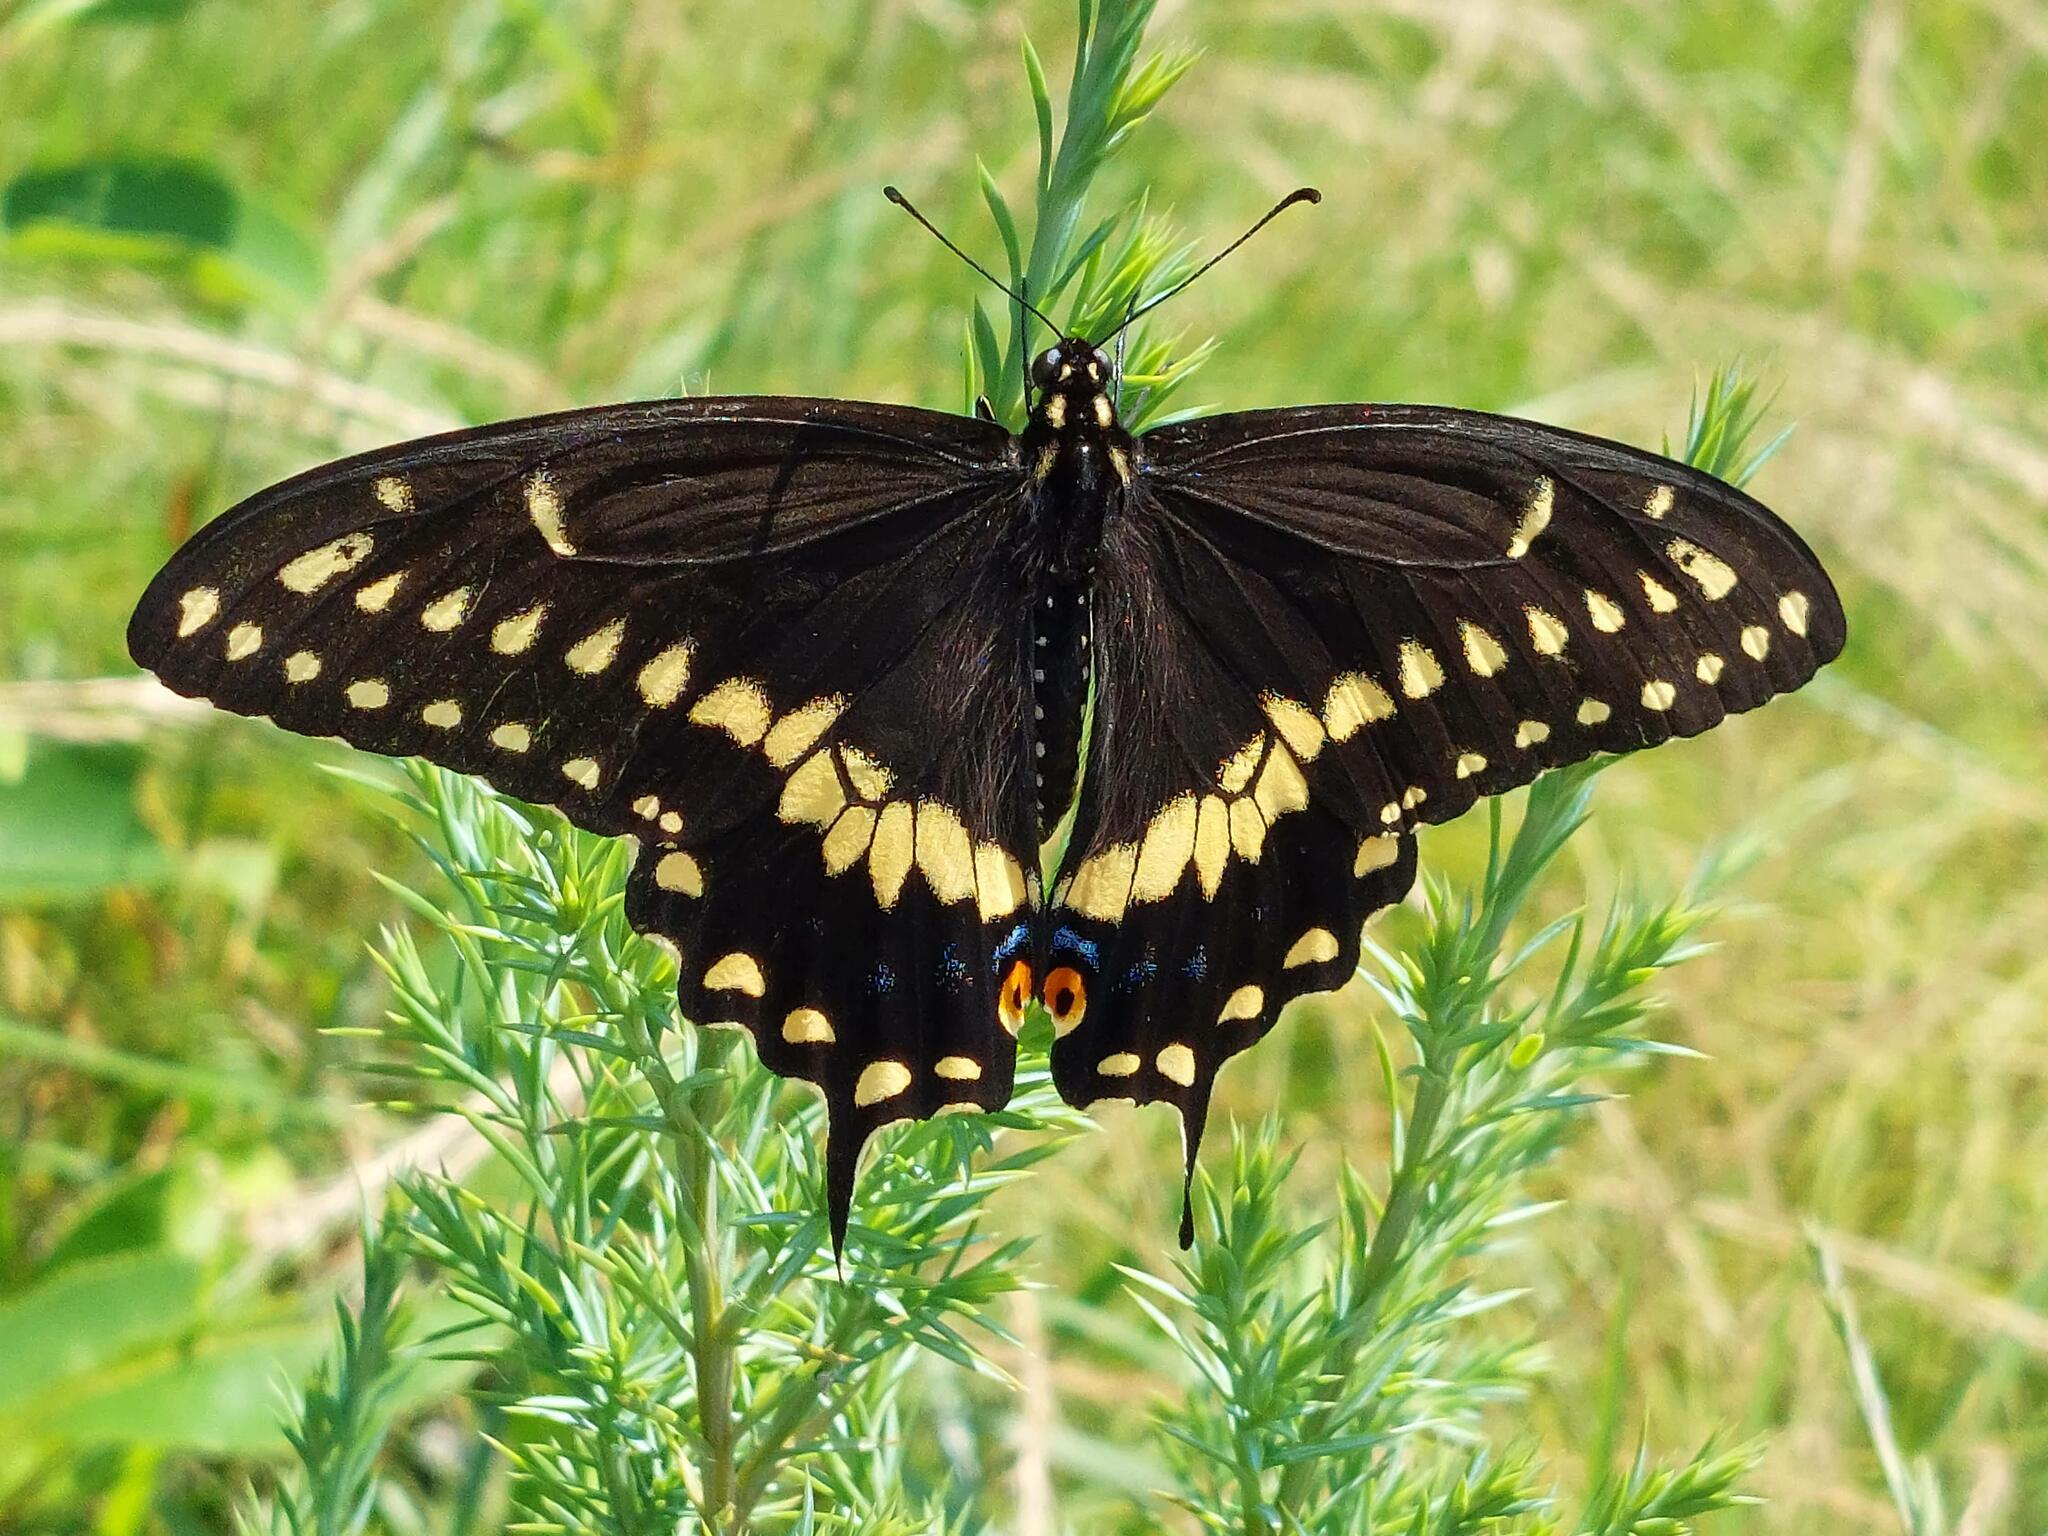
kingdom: Animalia
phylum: Arthropoda
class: Insecta
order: Lepidoptera
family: Papilionidae
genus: Papilio
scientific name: Papilio polyxenes
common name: Black swallowtail
